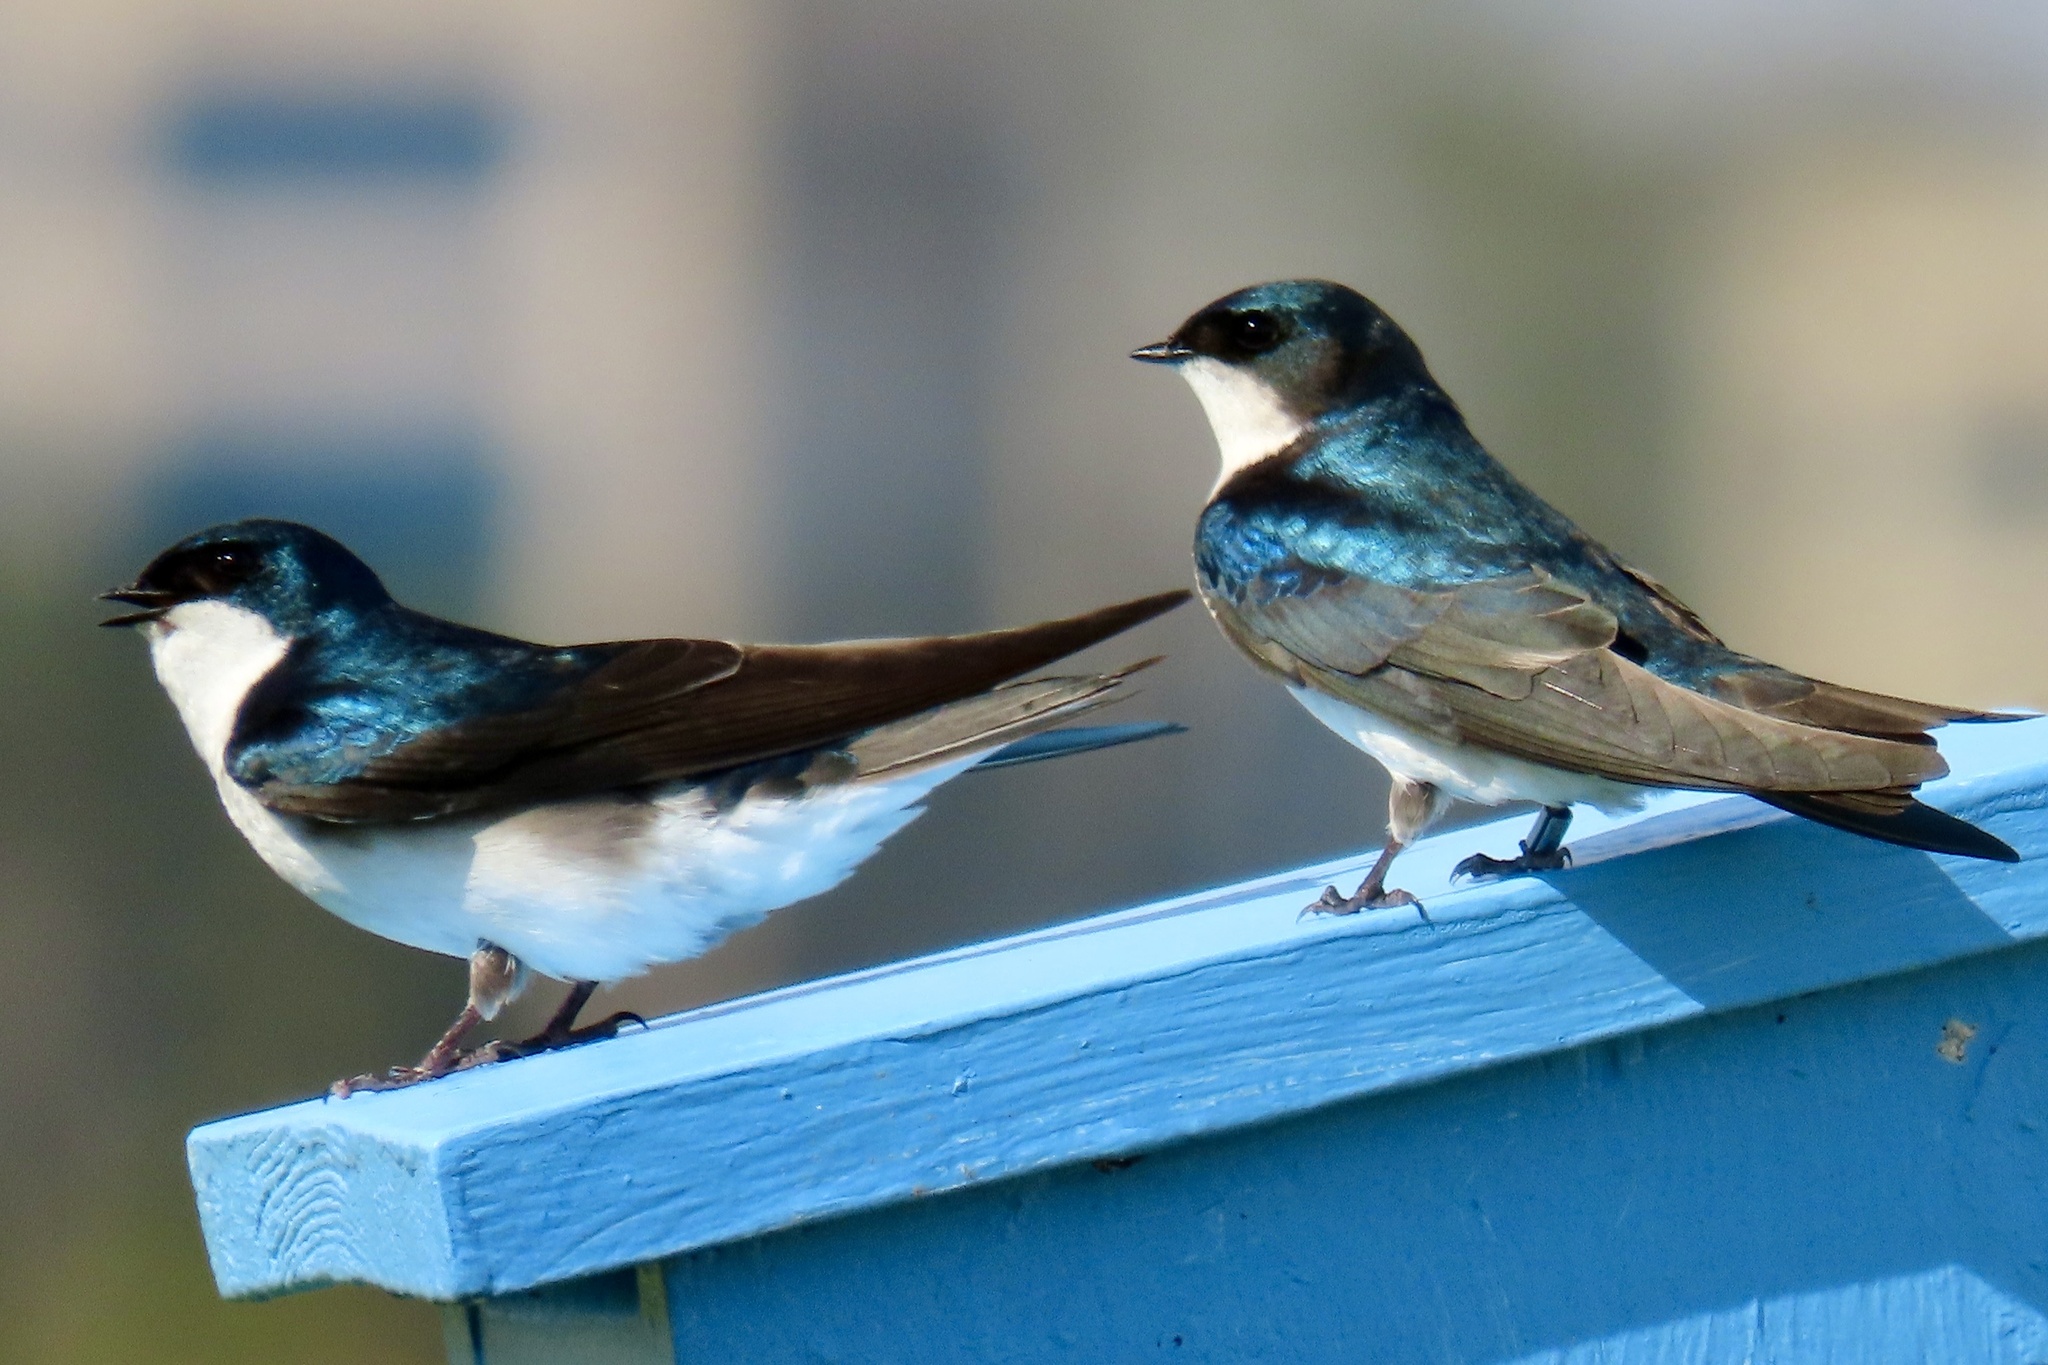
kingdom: Animalia
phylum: Chordata
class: Aves
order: Passeriformes
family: Hirundinidae
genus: Tachycineta
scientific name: Tachycineta bicolor
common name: Tree swallow
